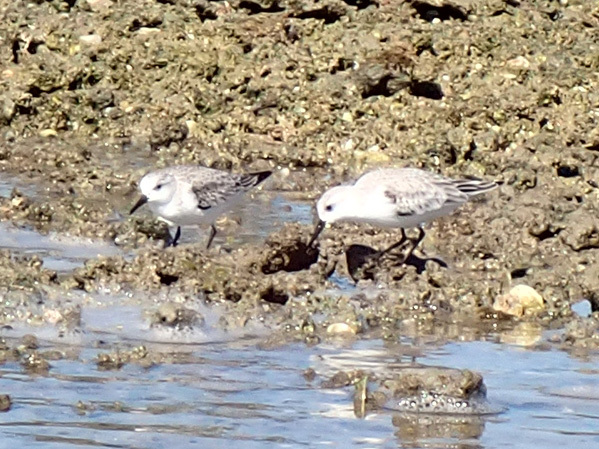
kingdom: Animalia
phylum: Chordata
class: Aves
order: Charadriiformes
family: Scolopacidae
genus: Calidris
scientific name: Calidris alba
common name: Sanderling
